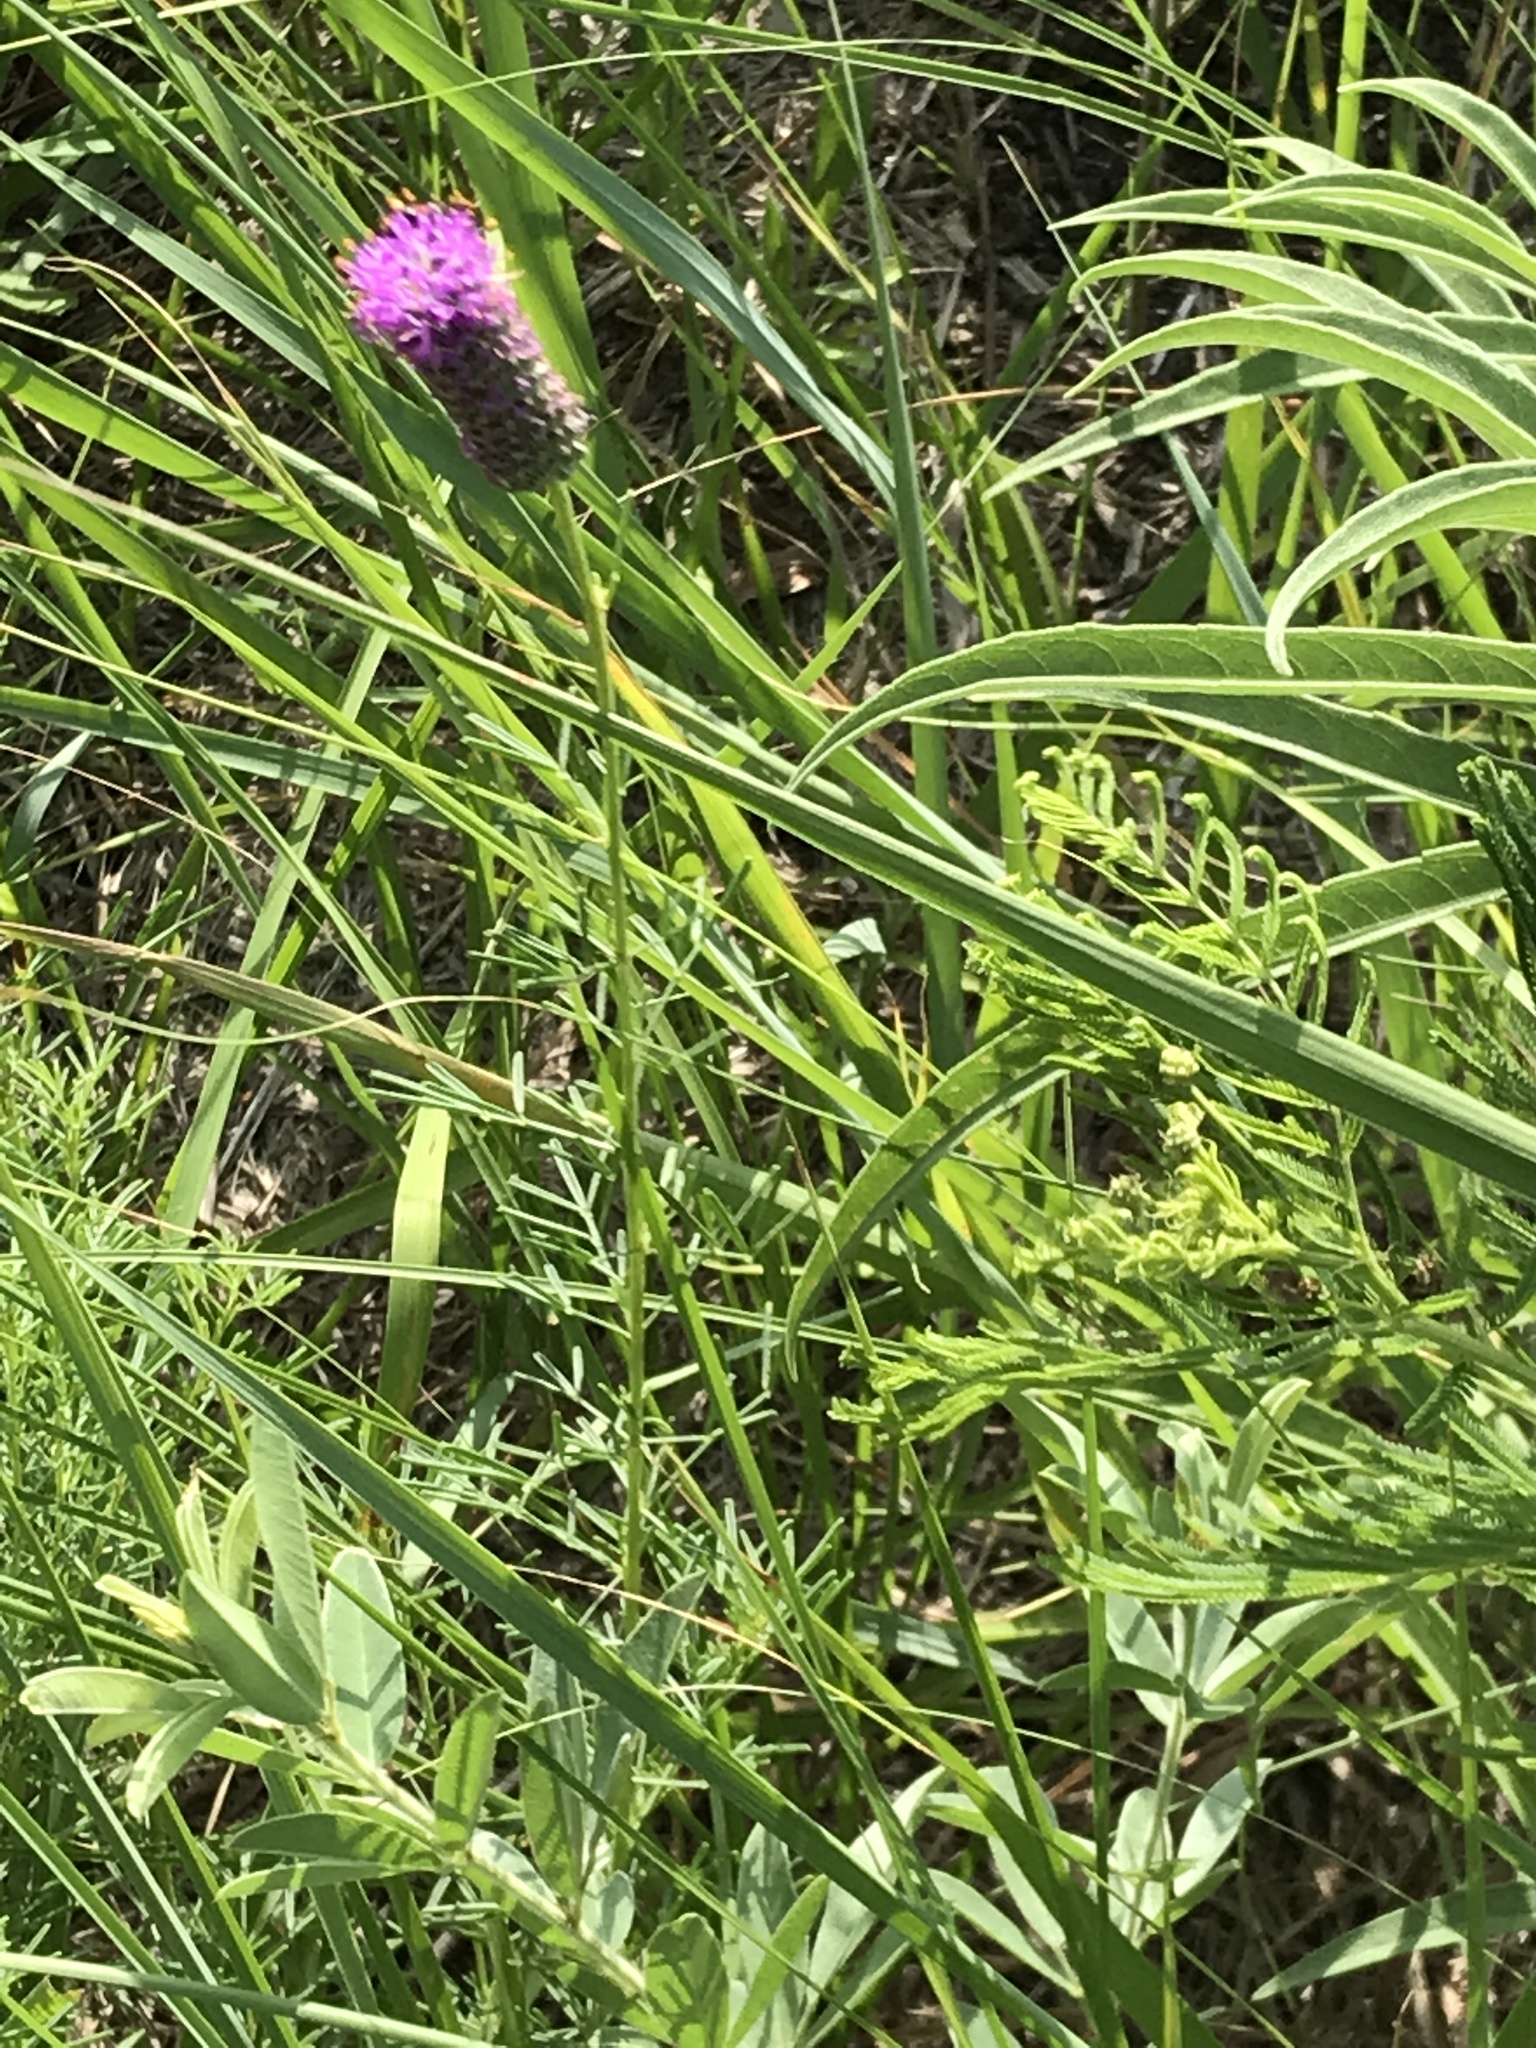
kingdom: Plantae
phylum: Tracheophyta
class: Magnoliopsida
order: Fabales
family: Fabaceae
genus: Dalea
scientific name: Dalea purpurea
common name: Purple prairie-clover
